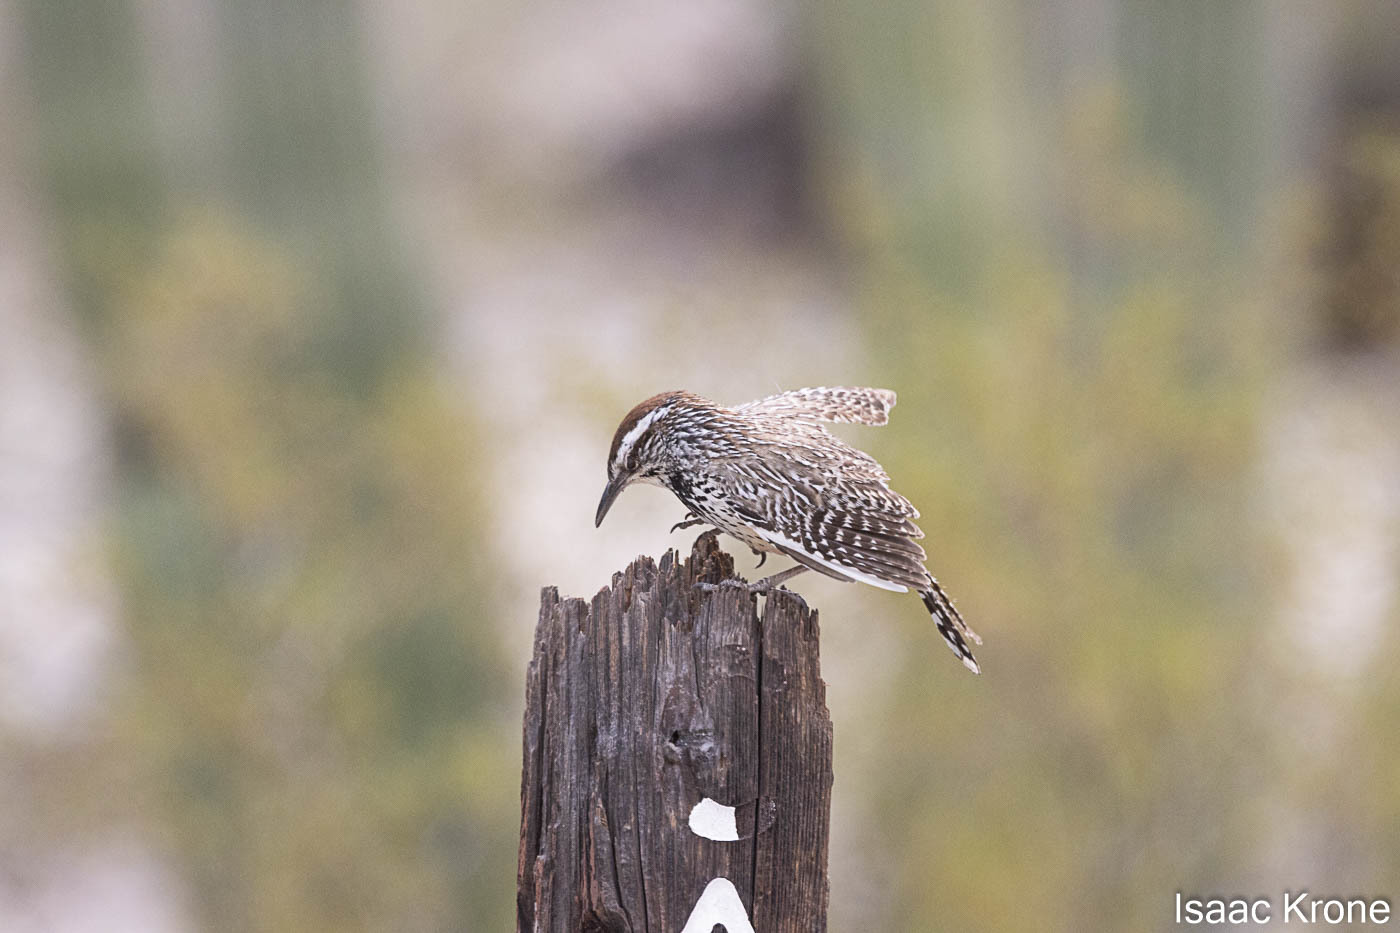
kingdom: Animalia
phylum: Chordata
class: Aves
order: Passeriformes
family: Troglodytidae
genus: Campylorhynchus
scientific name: Campylorhynchus brunneicapillus
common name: Cactus wren
